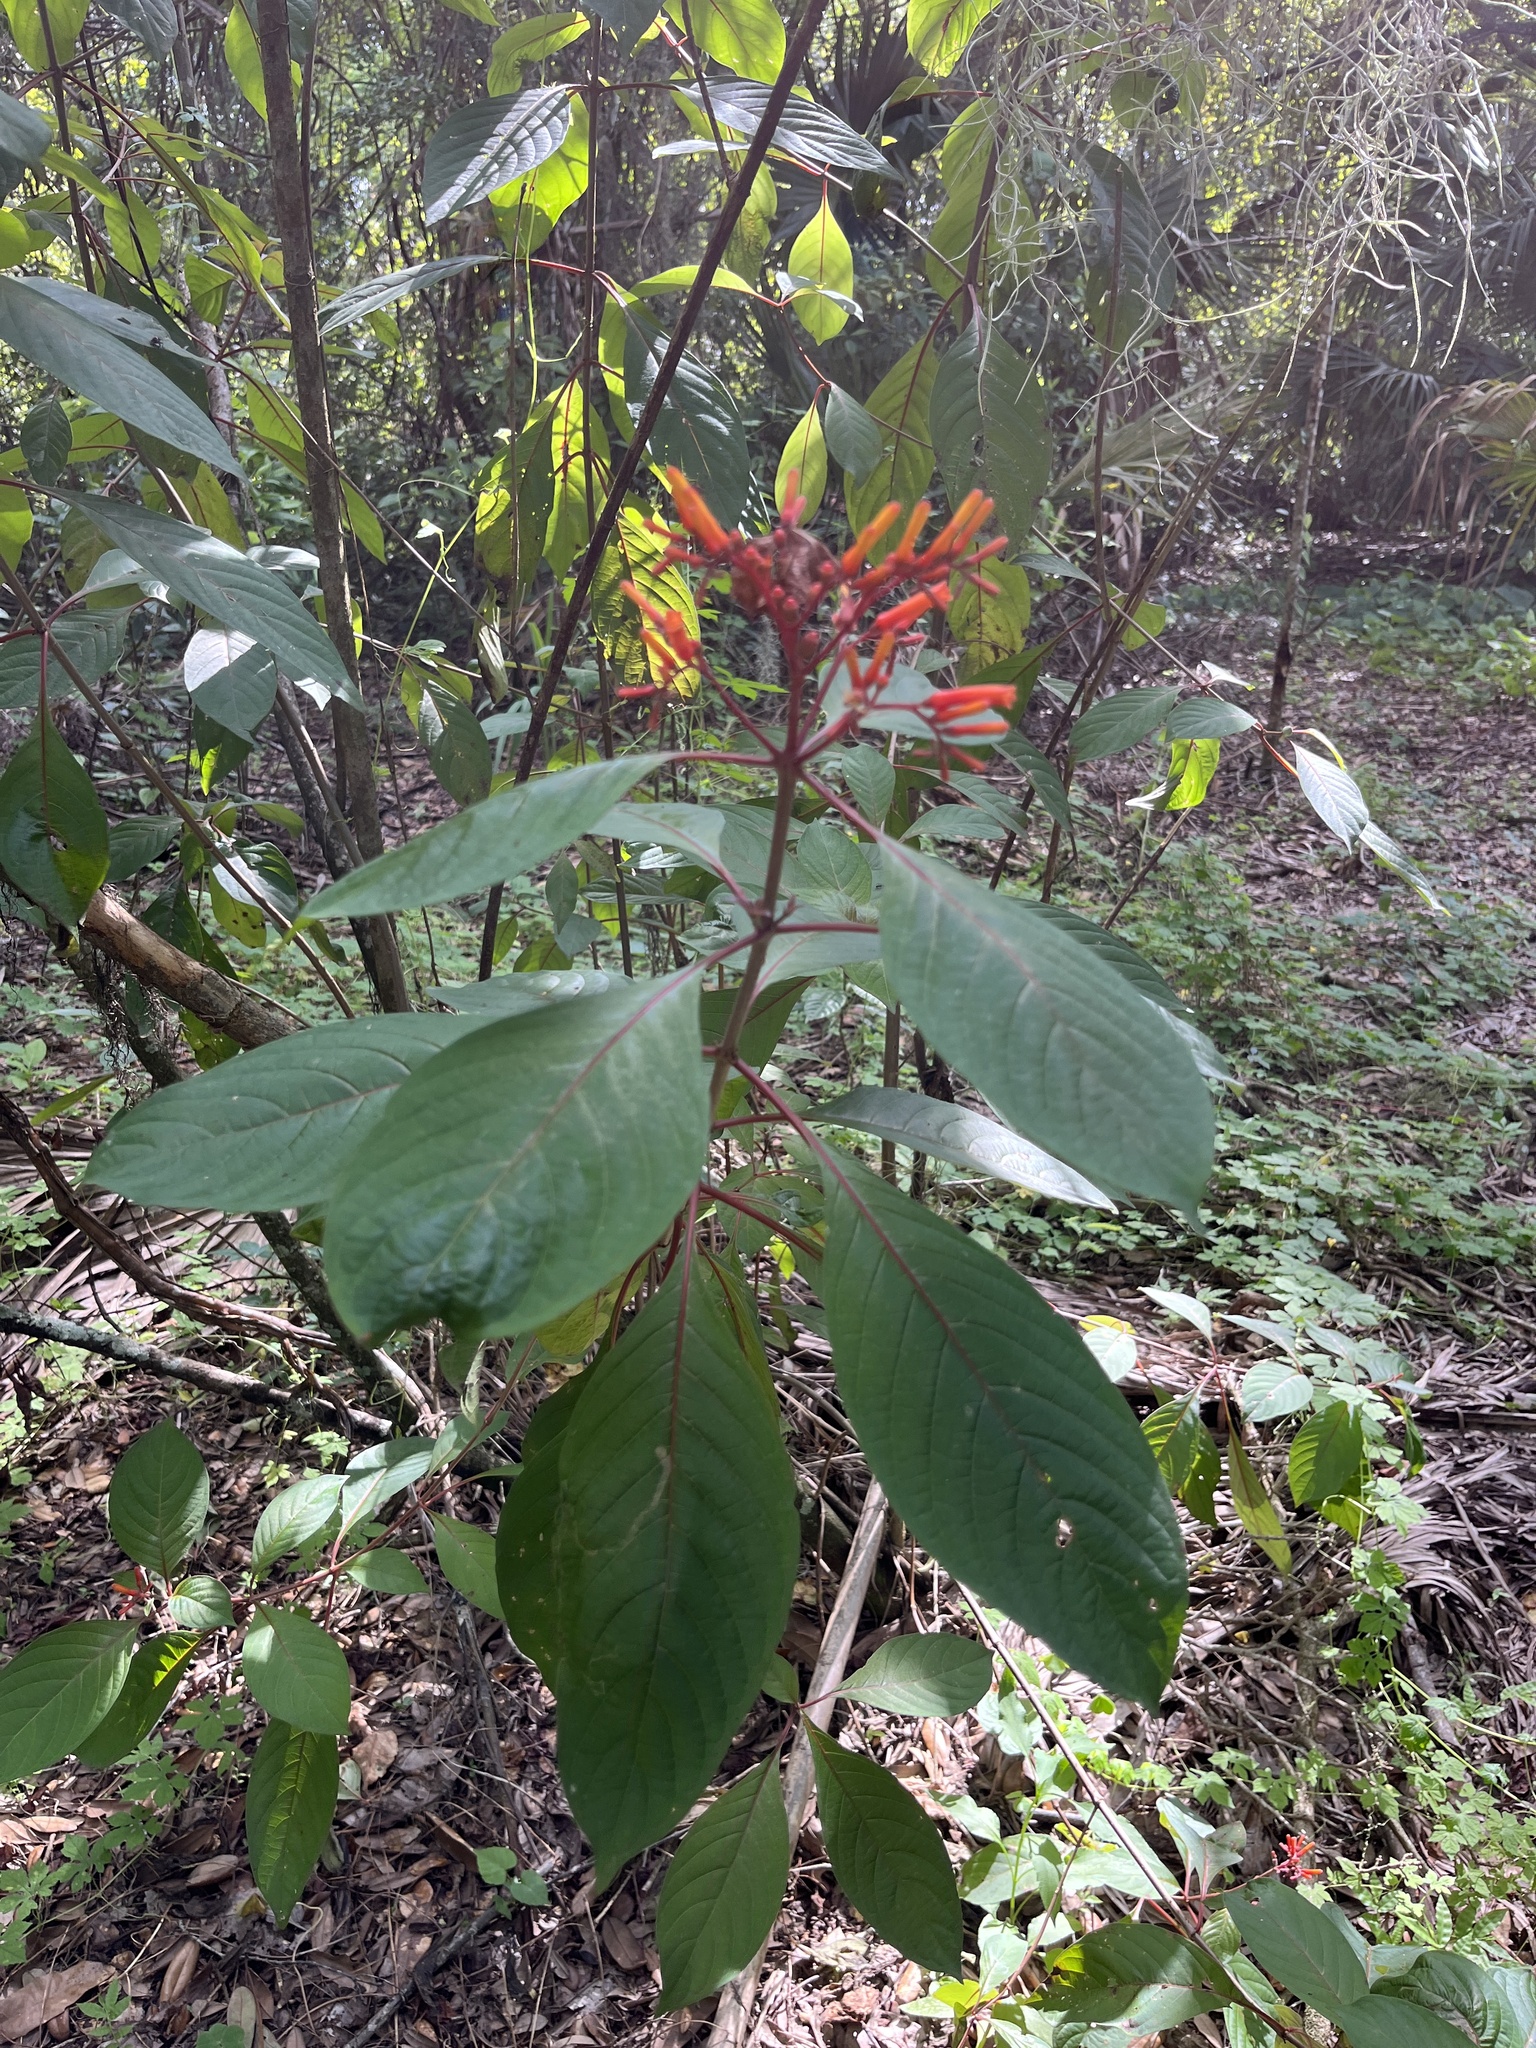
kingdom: Plantae
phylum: Tracheophyta
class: Magnoliopsida
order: Gentianales
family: Rubiaceae
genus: Hamelia
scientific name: Hamelia patens
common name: Redhead
